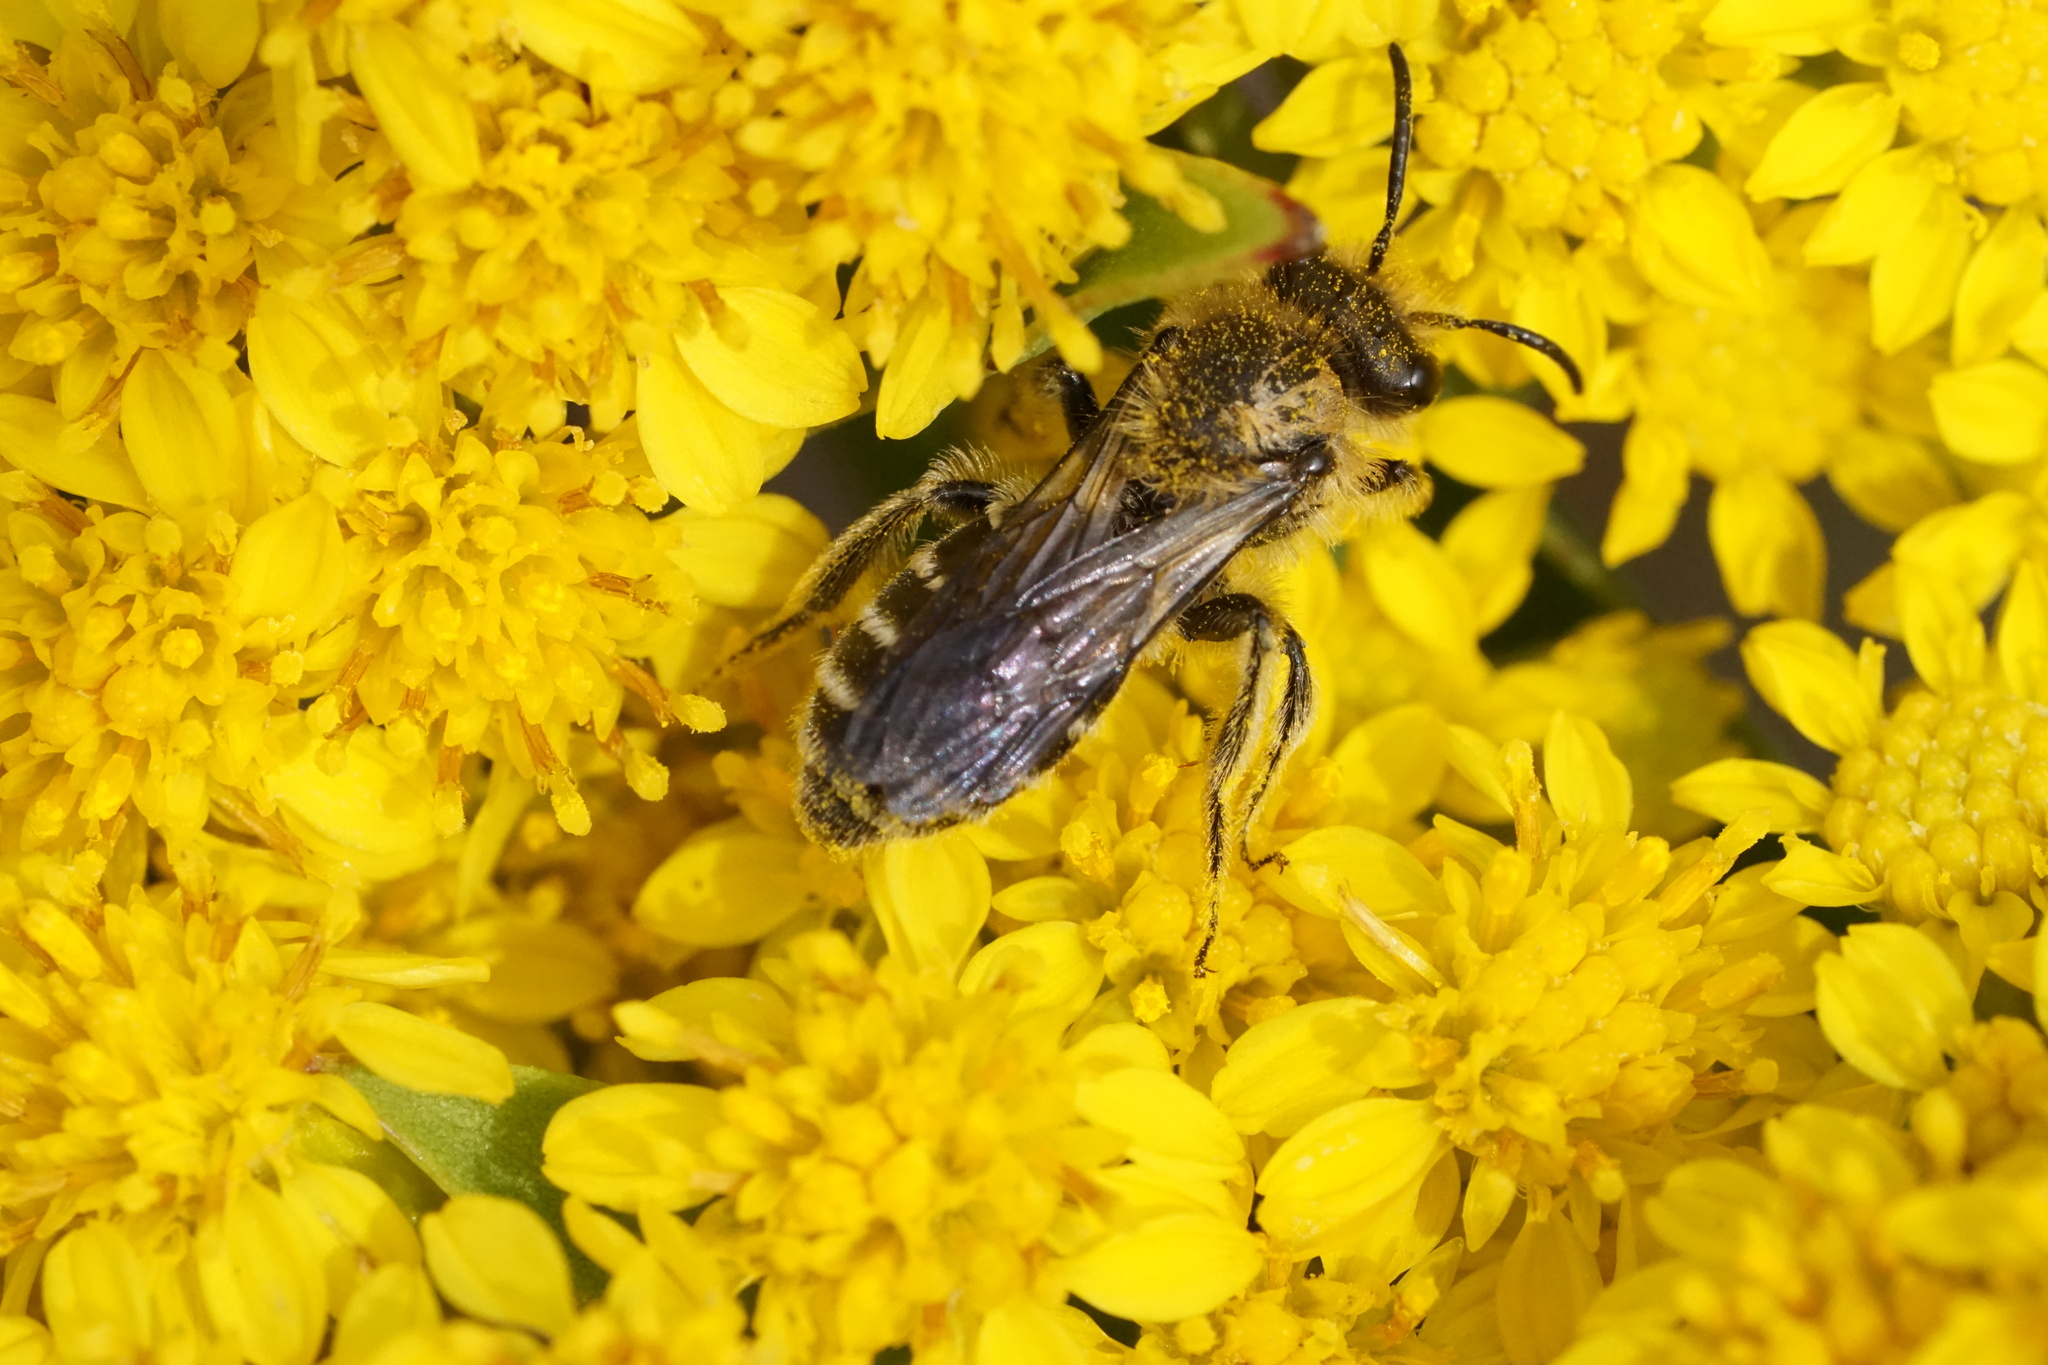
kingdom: Animalia
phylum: Arthropoda
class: Insecta
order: Hymenoptera
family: Andrenidae
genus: Andrena
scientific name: Andrena asteris
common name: Aster mining bee
